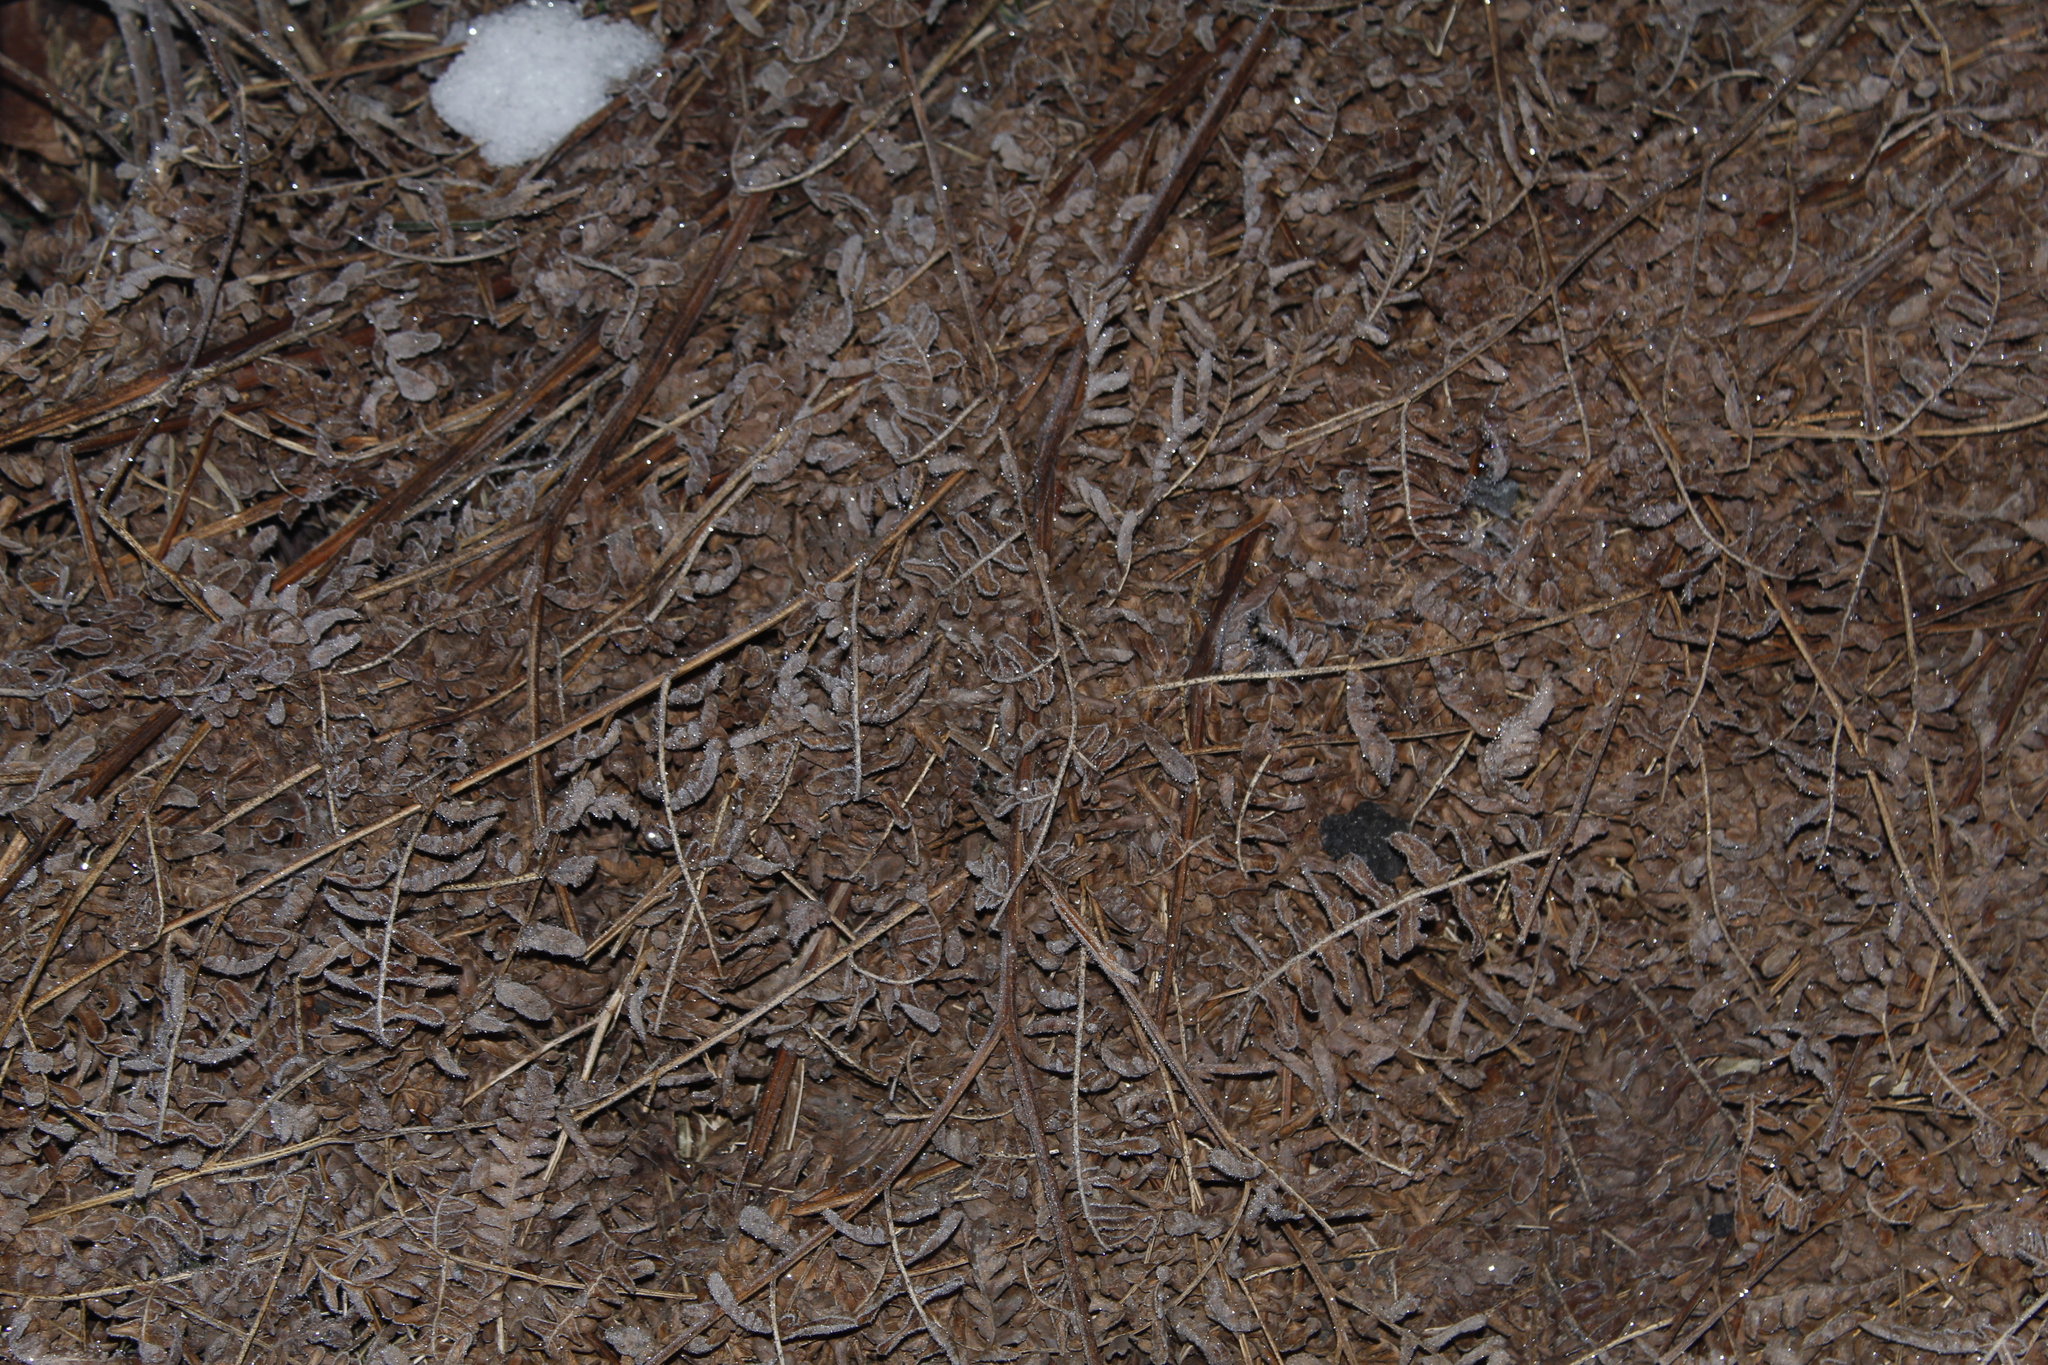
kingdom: Plantae
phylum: Tracheophyta
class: Polypodiopsida
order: Polypodiales
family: Dennstaedtiaceae
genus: Pteridium
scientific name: Pteridium aquilinum
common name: Bracken
